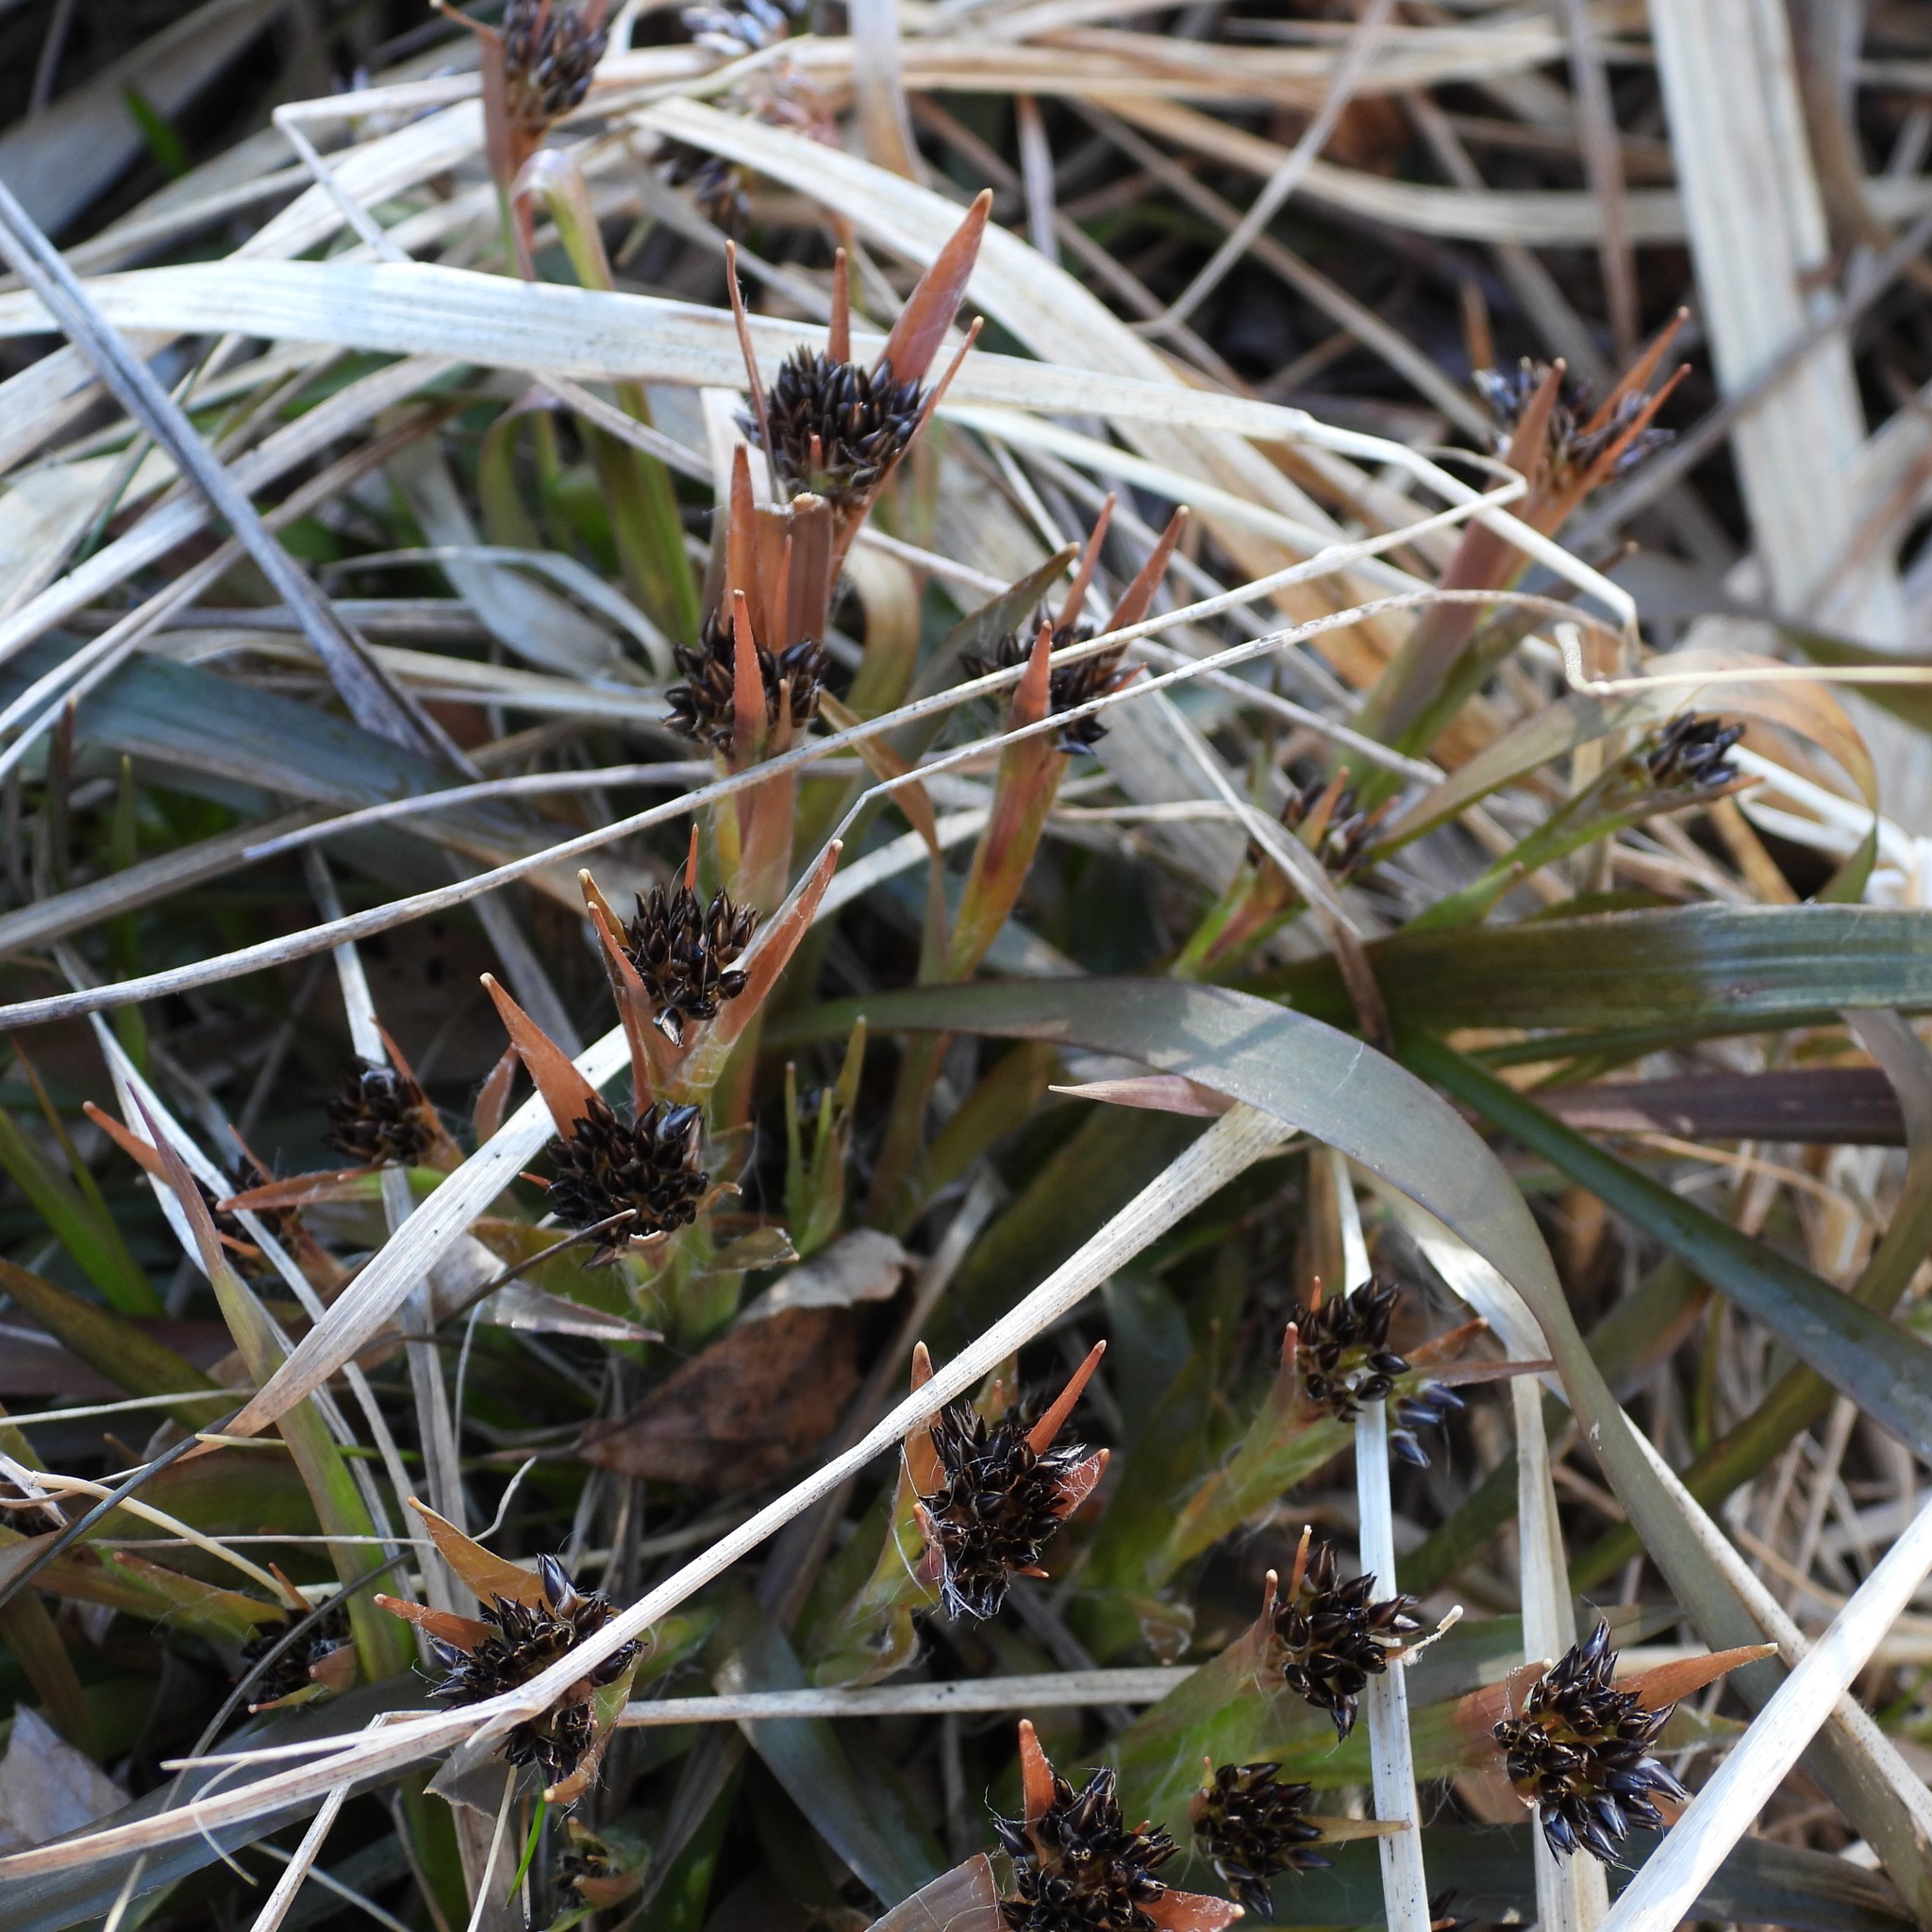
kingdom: Plantae
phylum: Tracheophyta
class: Liliopsida
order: Poales
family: Juncaceae
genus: Luzula
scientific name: Luzula pilosa
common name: Hairy wood-rush
